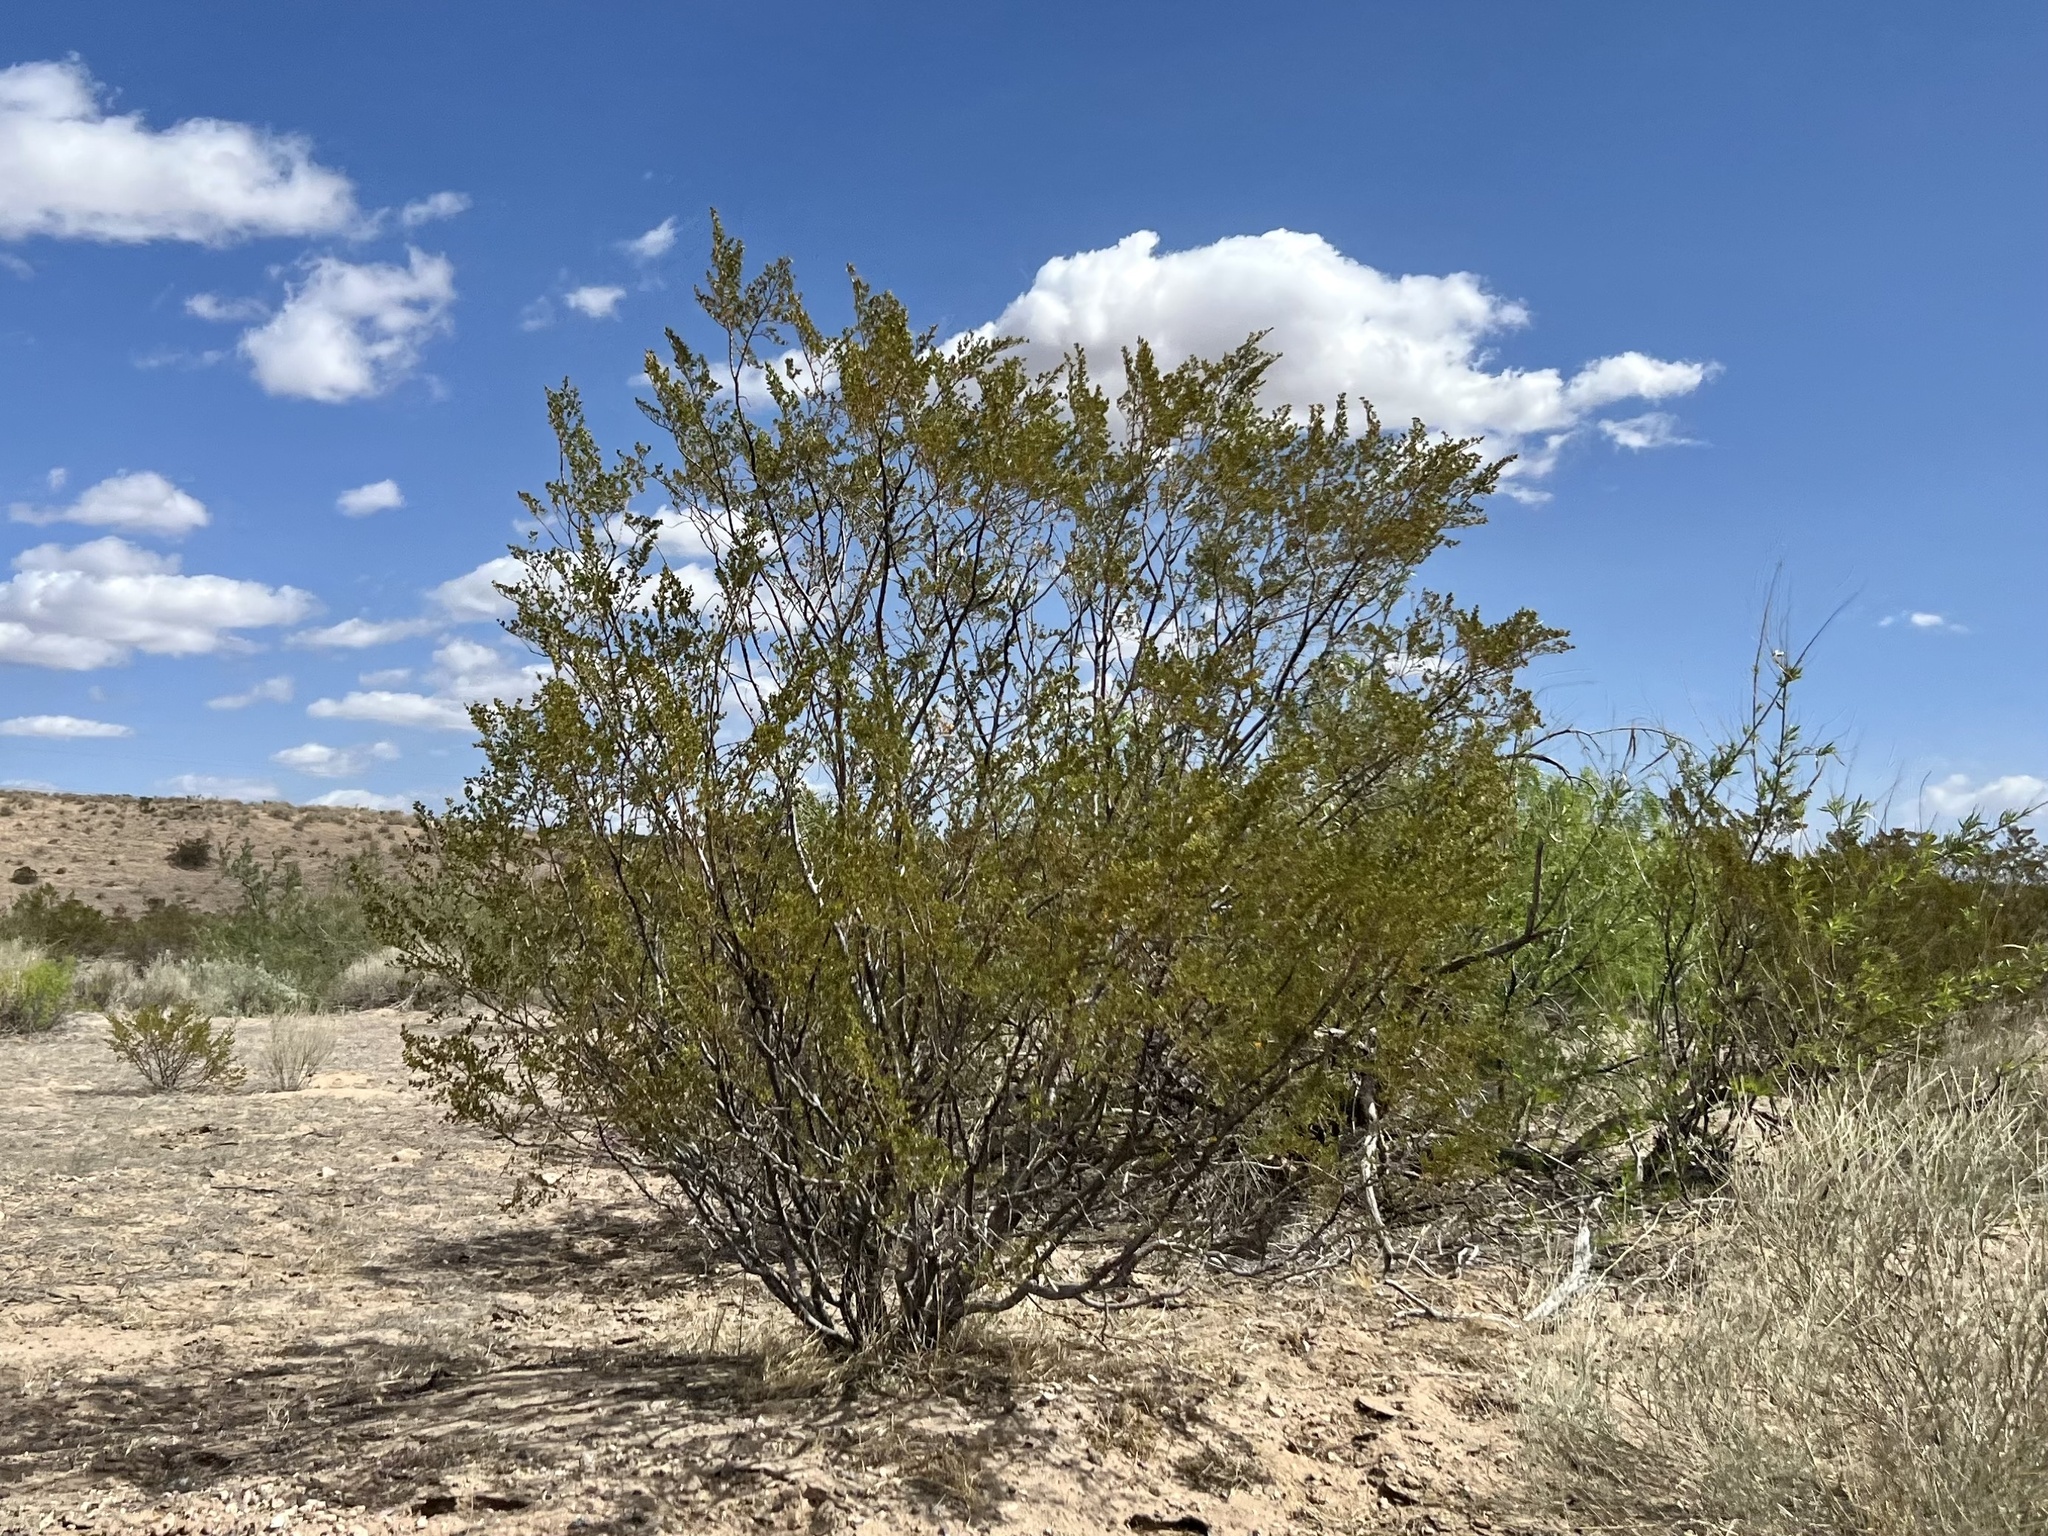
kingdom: Plantae
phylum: Tracheophyta
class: Magnoliopsida
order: Zygophyllales
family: Zygophyllaceae
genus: Larrea
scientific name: Larrea tridentata
